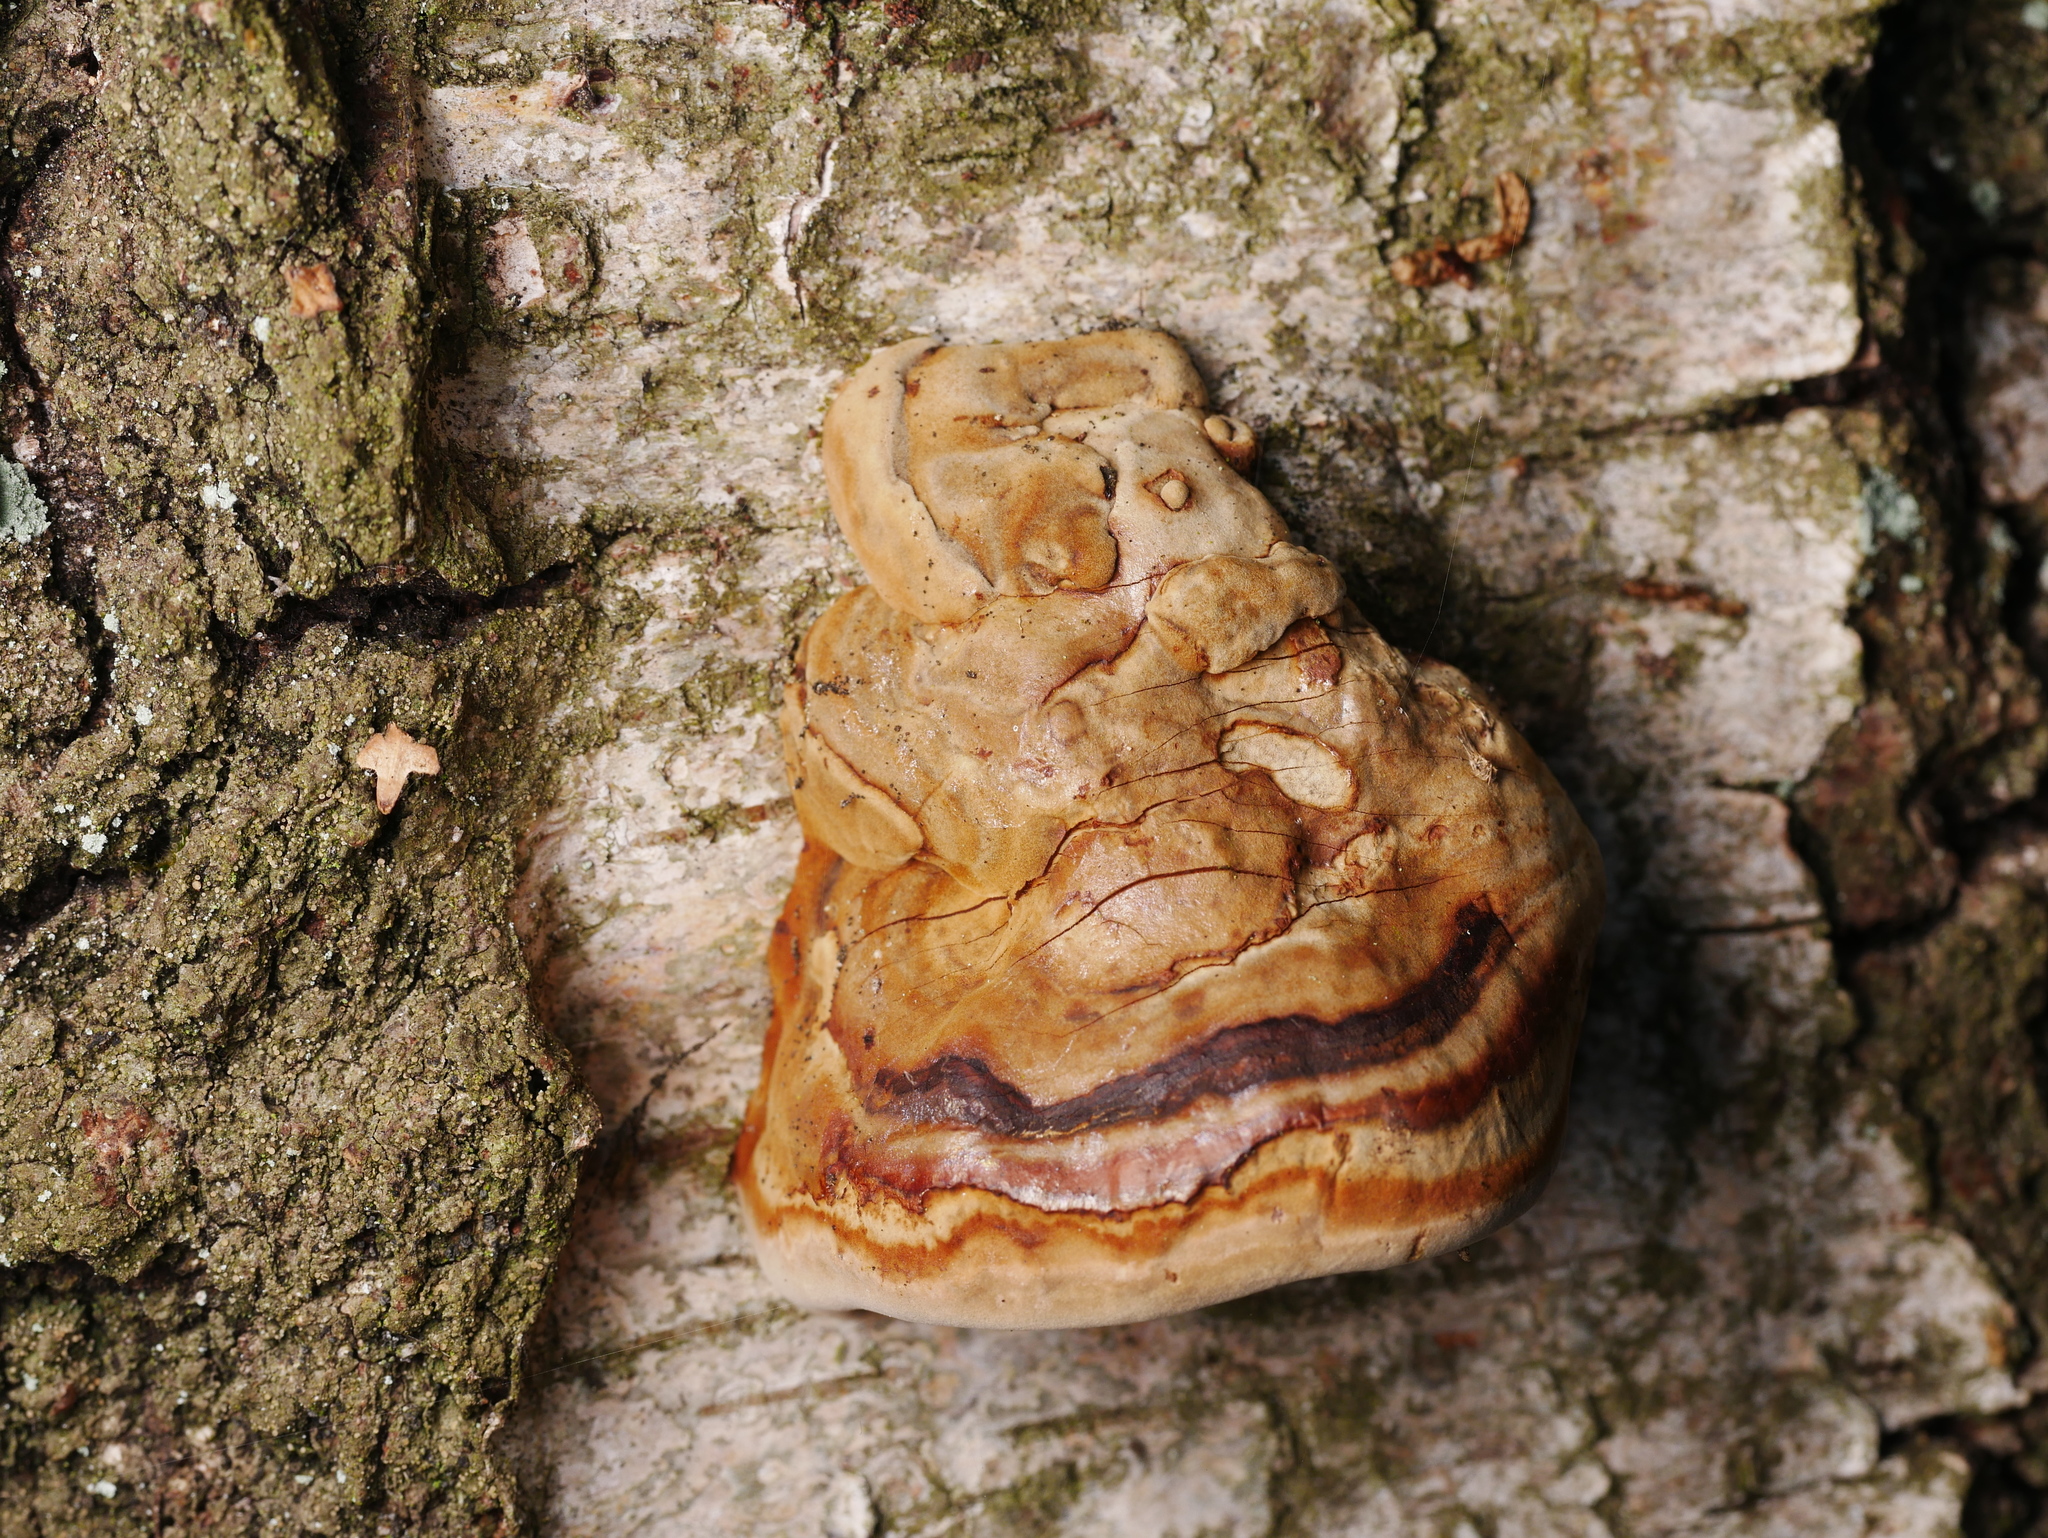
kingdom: Fungi
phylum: Basidiomycota
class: Agaricomycetes
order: Polyporales
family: Polyporaceae
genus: Fomes
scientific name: Fomes fomentarius
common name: Hoof fungus
